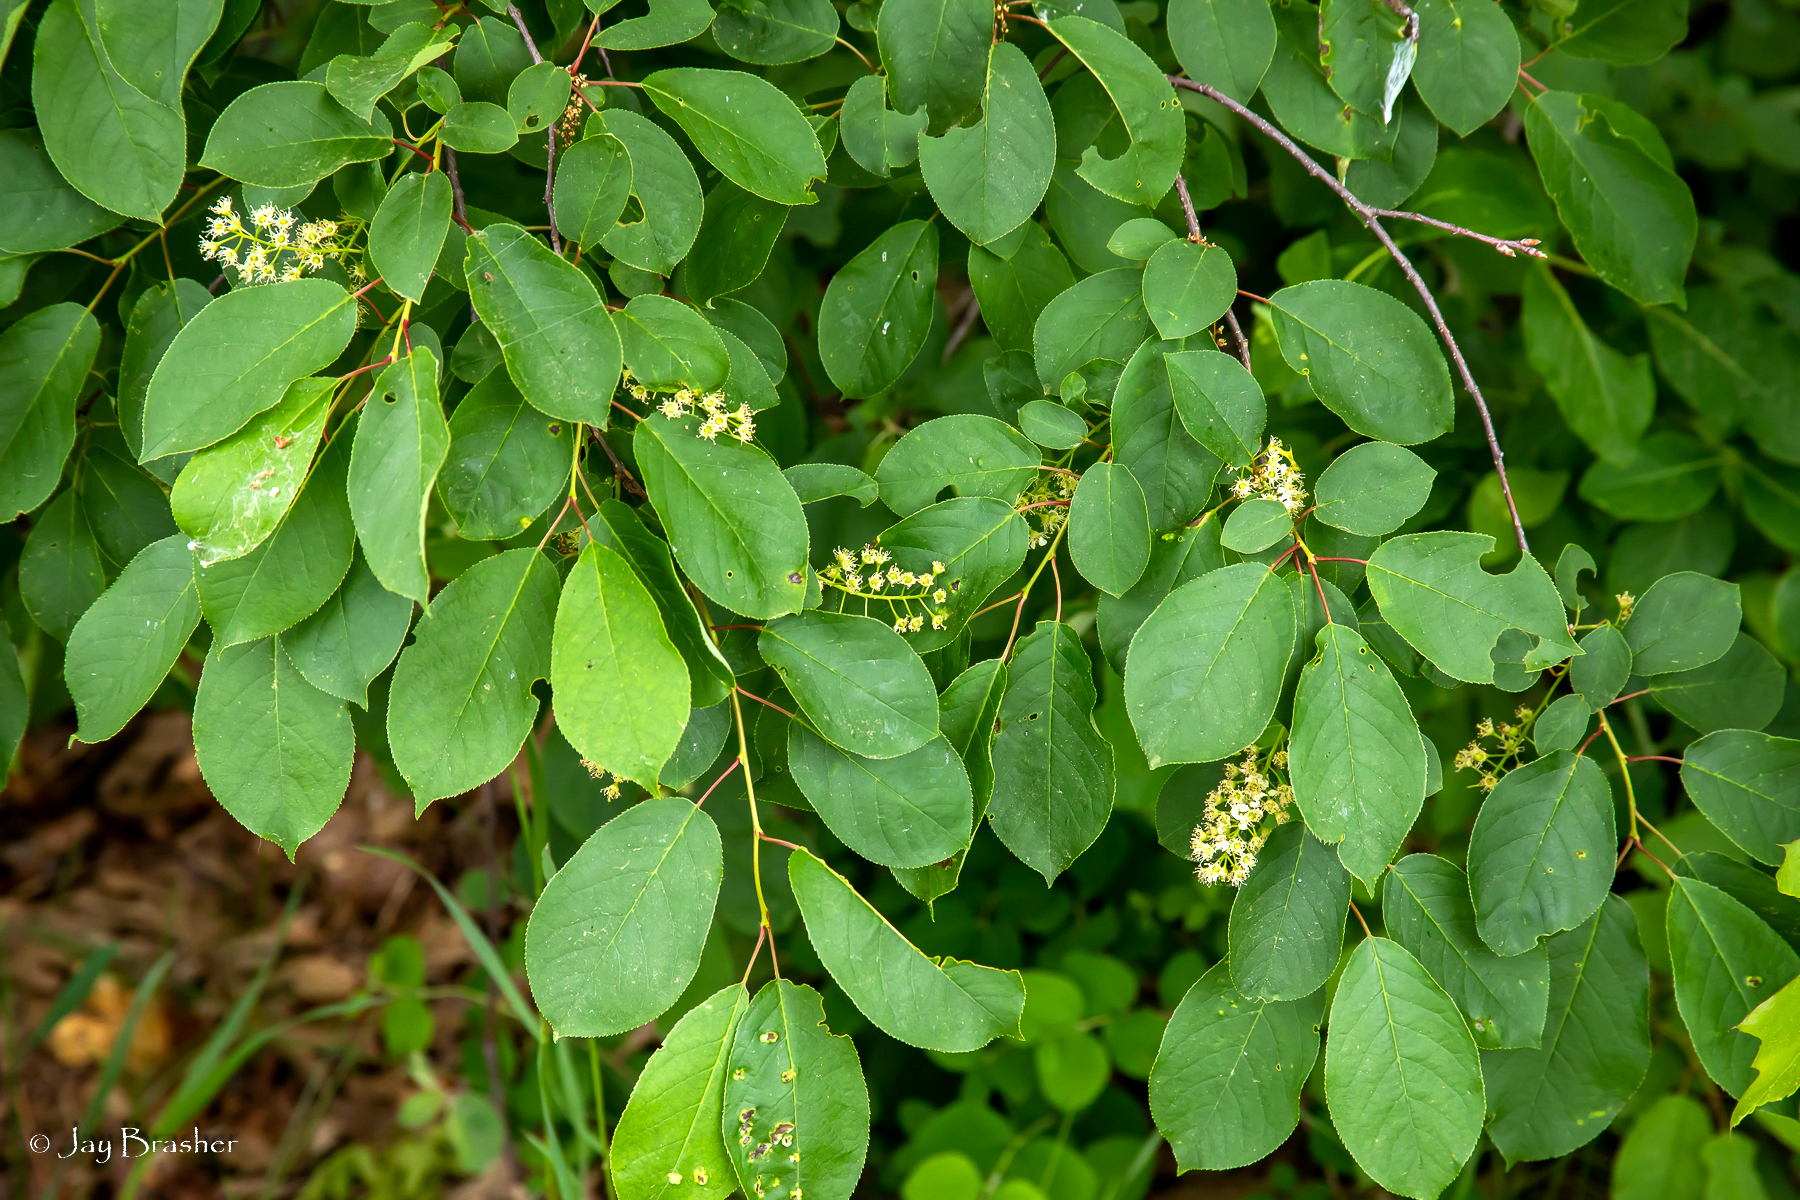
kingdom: Plantae
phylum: Tracheophyta
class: Magnoliopsida
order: Rosales
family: Rosaceae
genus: Prunus
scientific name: Prunus virginiana
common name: Chokecherry
